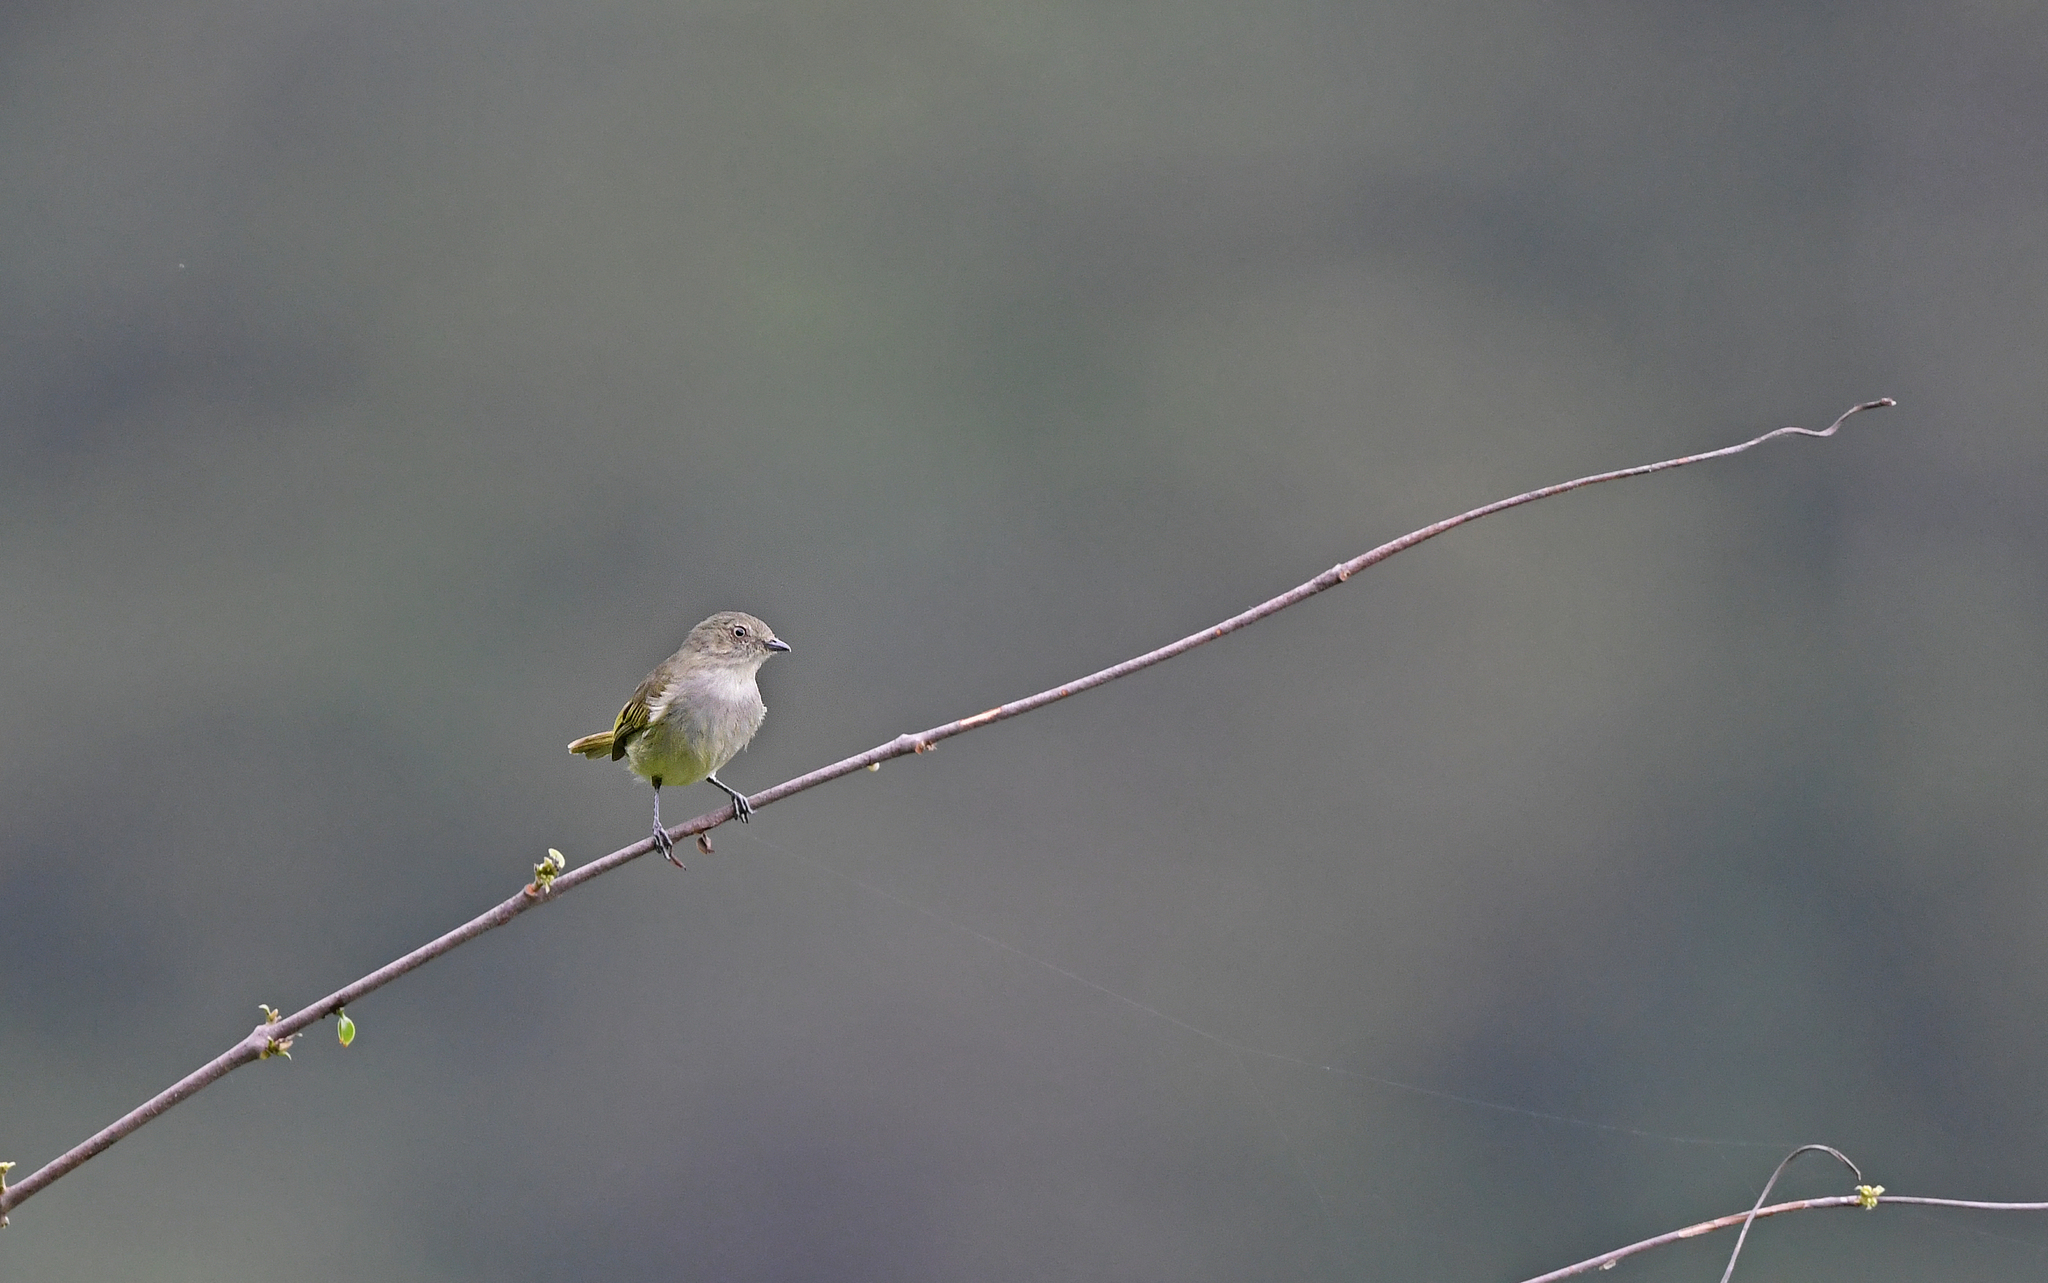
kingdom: Animalia
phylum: Chordata
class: Aves
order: Passeriformes
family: Tyrannidae
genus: Zimmerius
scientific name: Zimmerius bolivianus
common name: Bolivian tyrannulet
